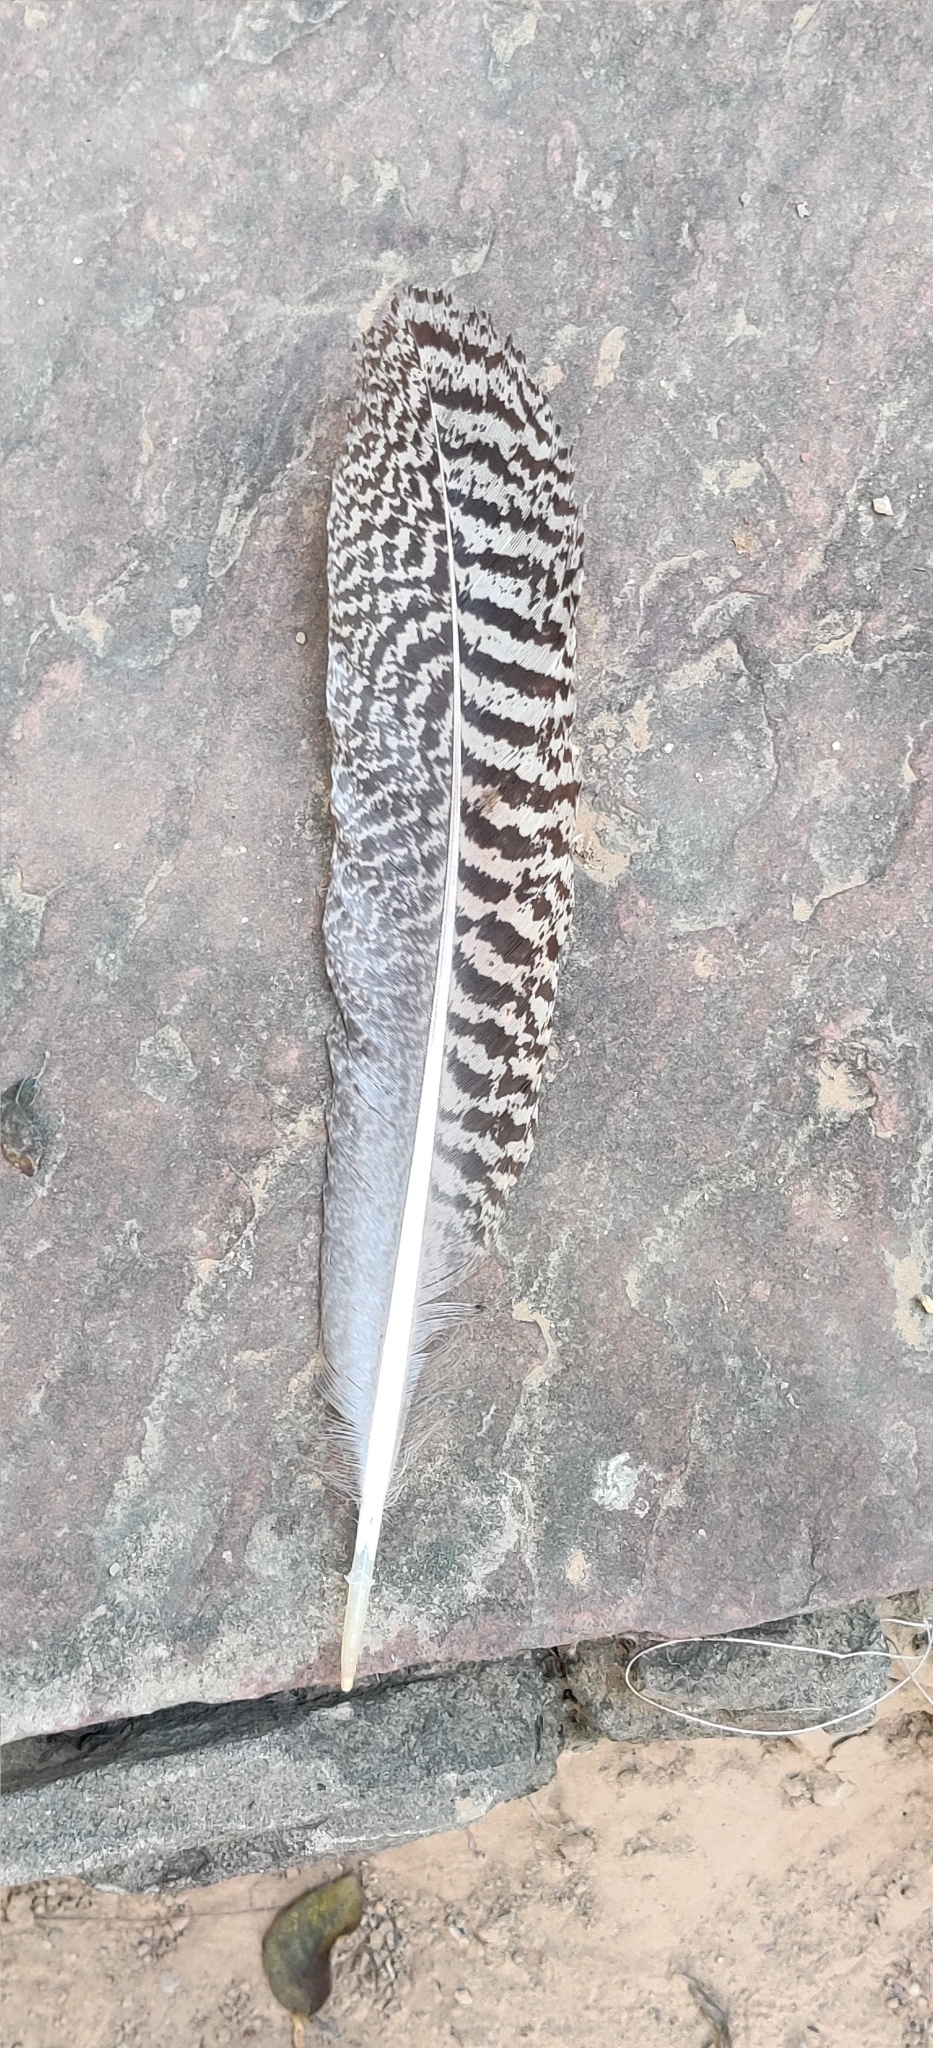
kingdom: Animalia
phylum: Chordata
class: Aves
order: Galliformes
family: Phasianidae
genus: Pavo
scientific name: Pavo cristatus
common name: Indian peafowl
